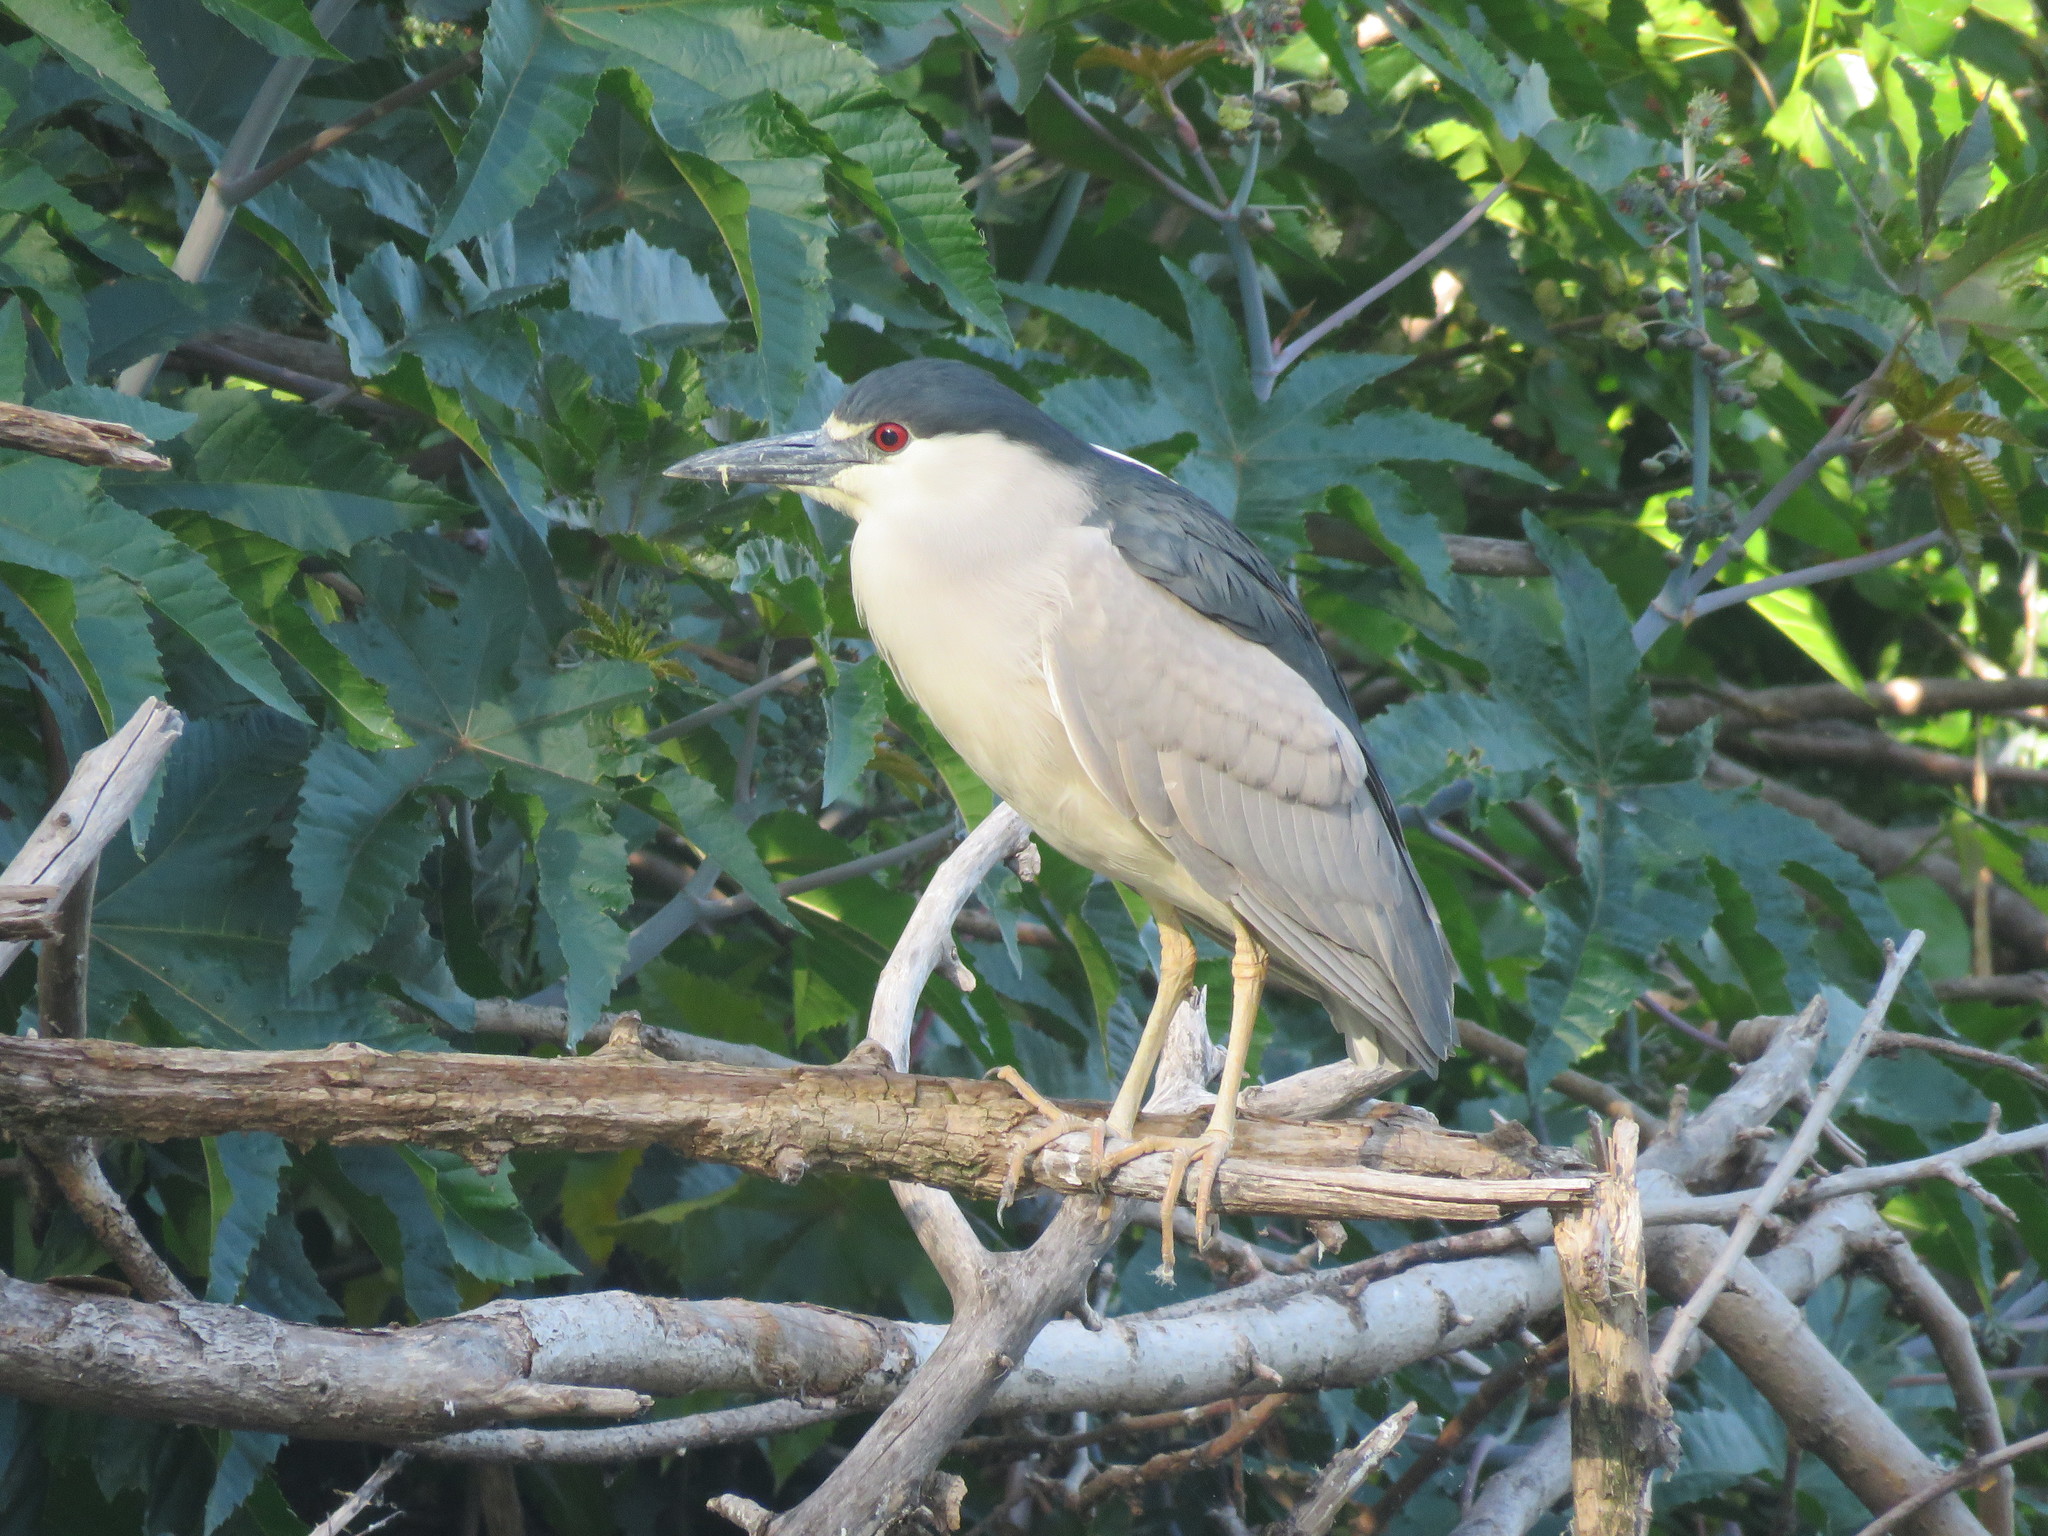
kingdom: Animalia
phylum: Chordata
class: Aves
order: Pelecaniformes
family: Ardeidae
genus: Nycticorax
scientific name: Nycticorax nycticorax
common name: Black-crowned night heron
